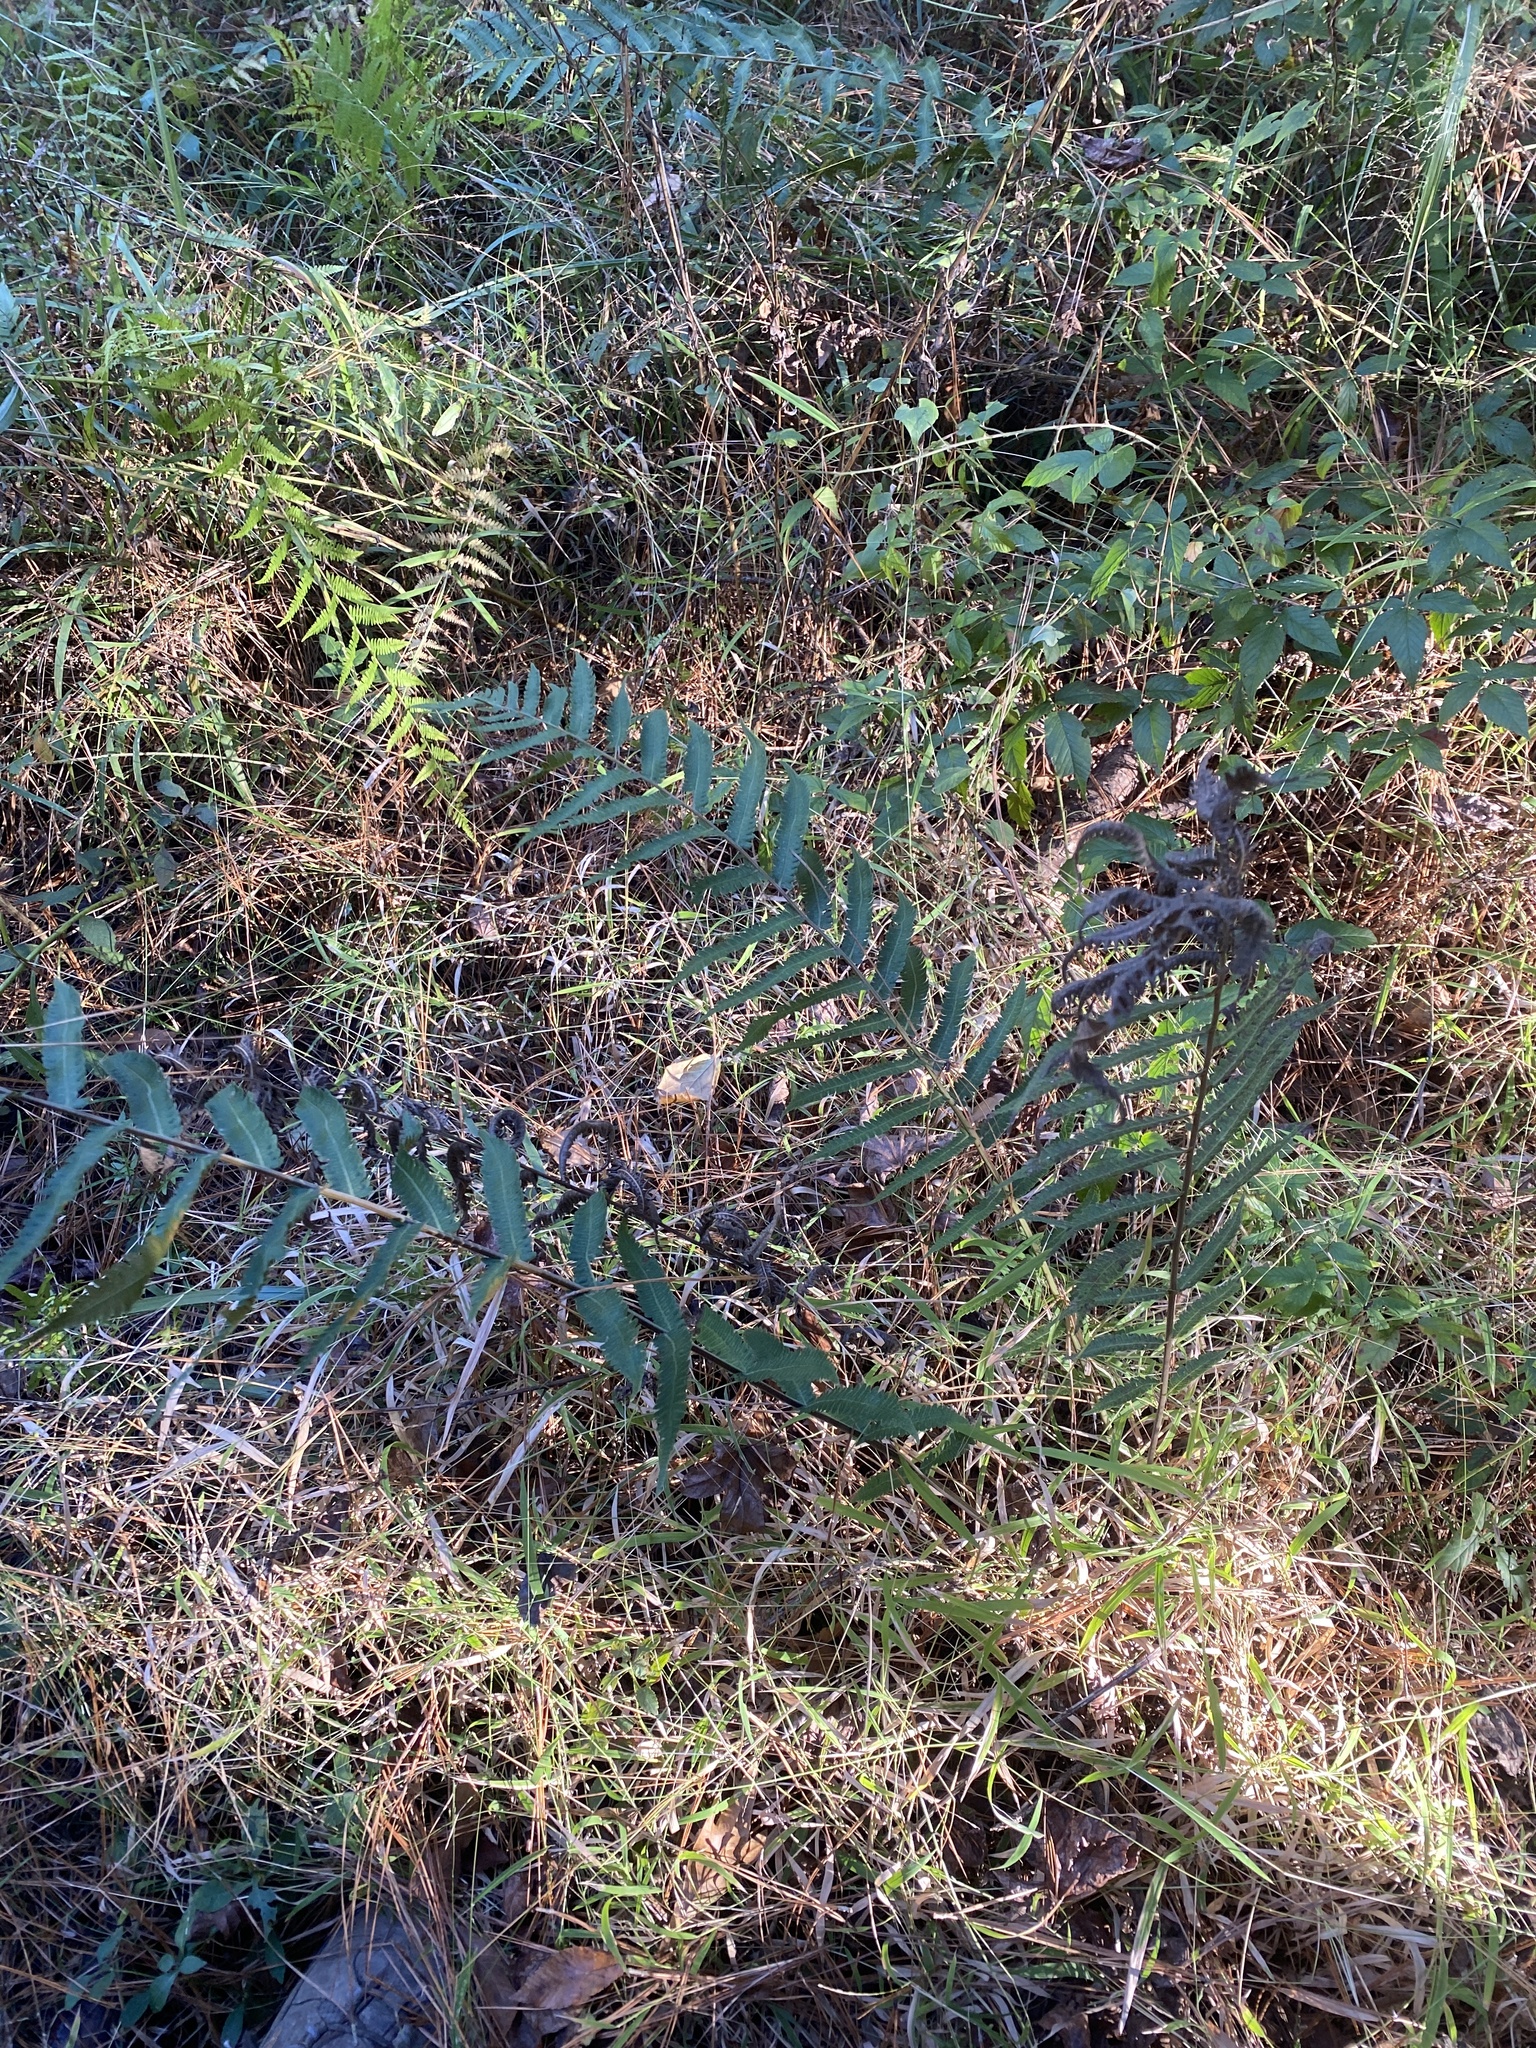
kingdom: Plantae
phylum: Tracheophyta
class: Polypodiopsida
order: Polypodiales
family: Thelypteridaceae
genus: Christella
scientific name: Christella dentata
